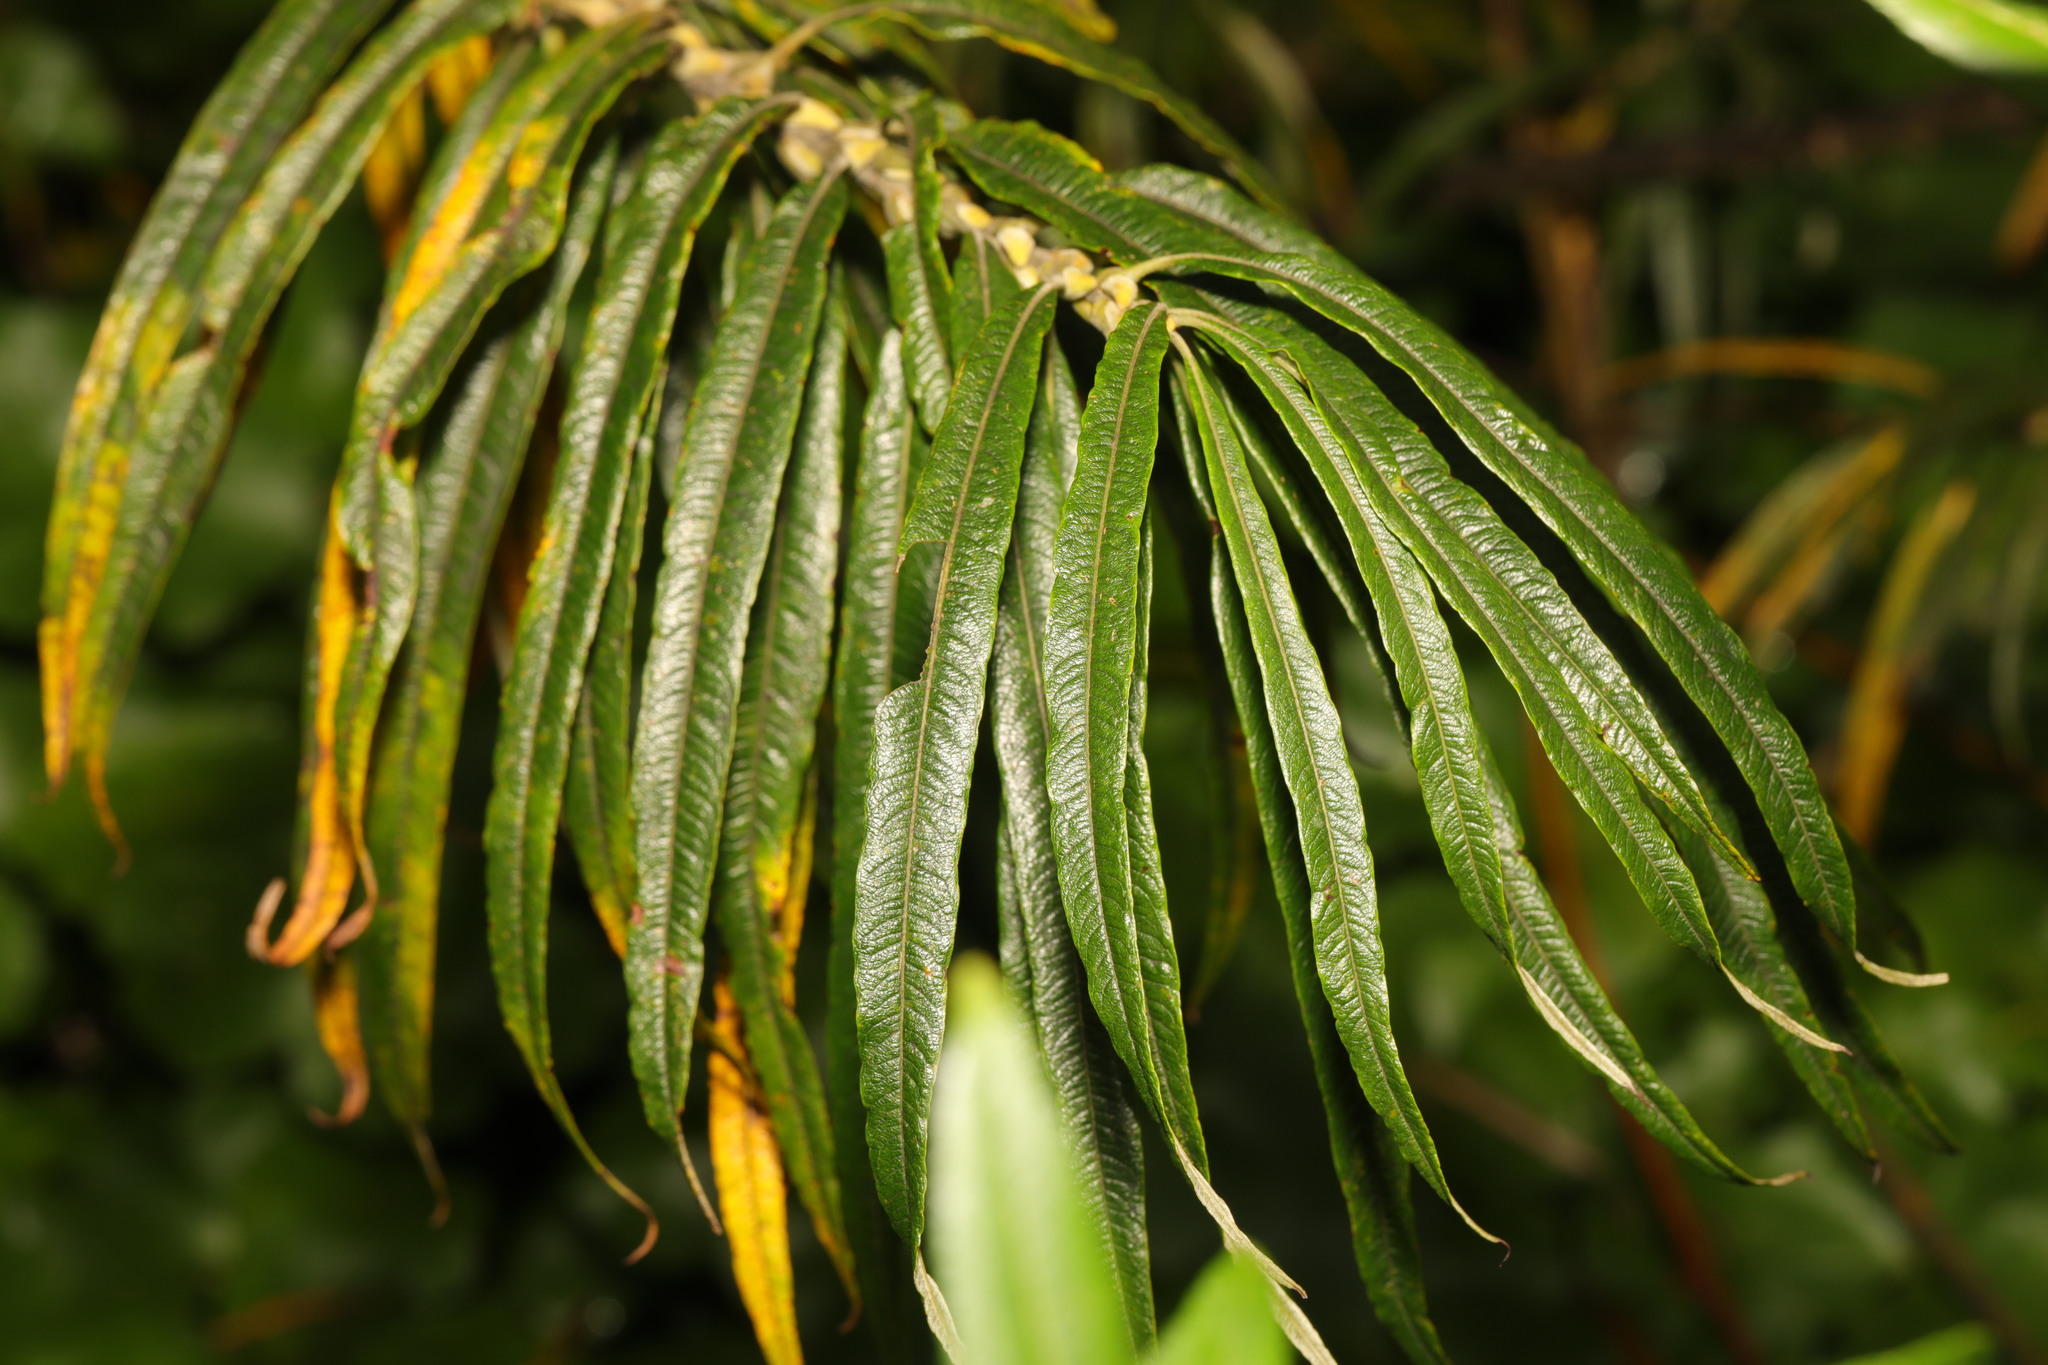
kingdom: Plantae
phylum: Tracheophyta
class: Magnoliopsida
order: Malpighiales
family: Salicaceae
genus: Salix
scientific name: Salix viminalis
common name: Osier
